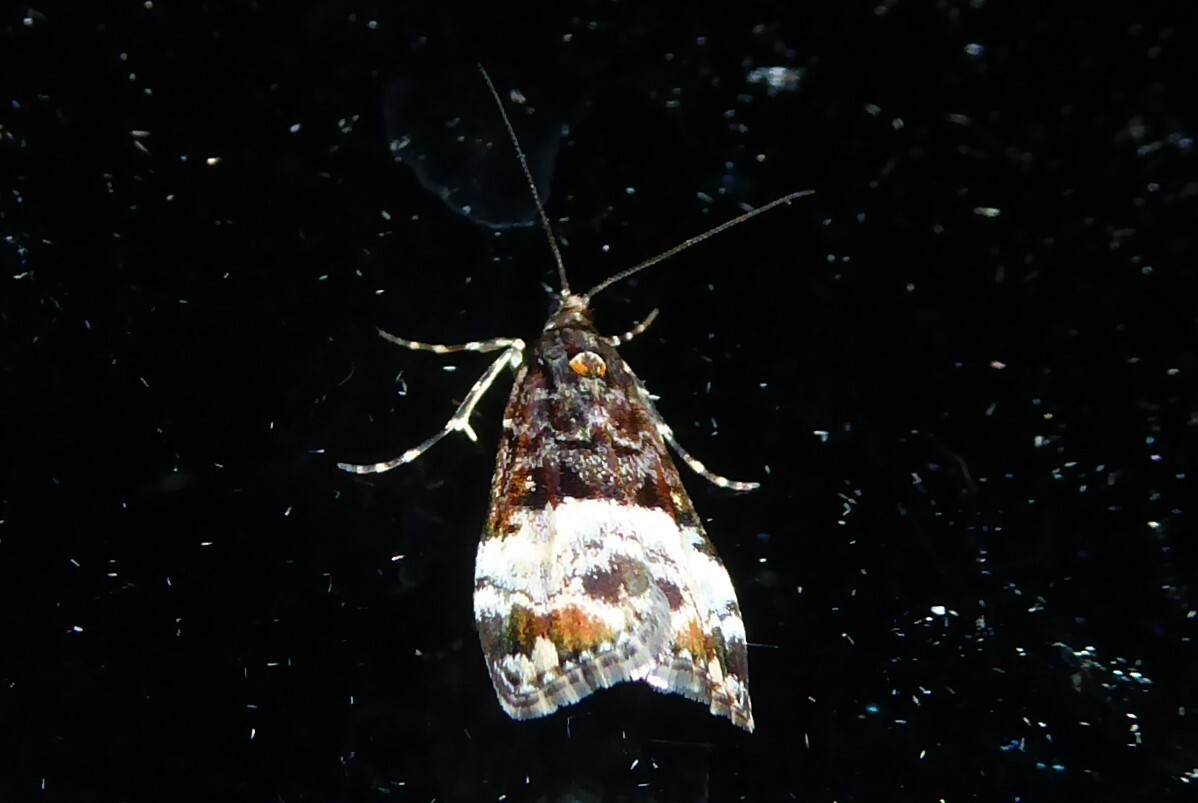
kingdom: Animalia
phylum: Arthropoda
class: Insecta
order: Lepidoptera
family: Crambidae
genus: Scoparia
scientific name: Scoparia minusculalis
